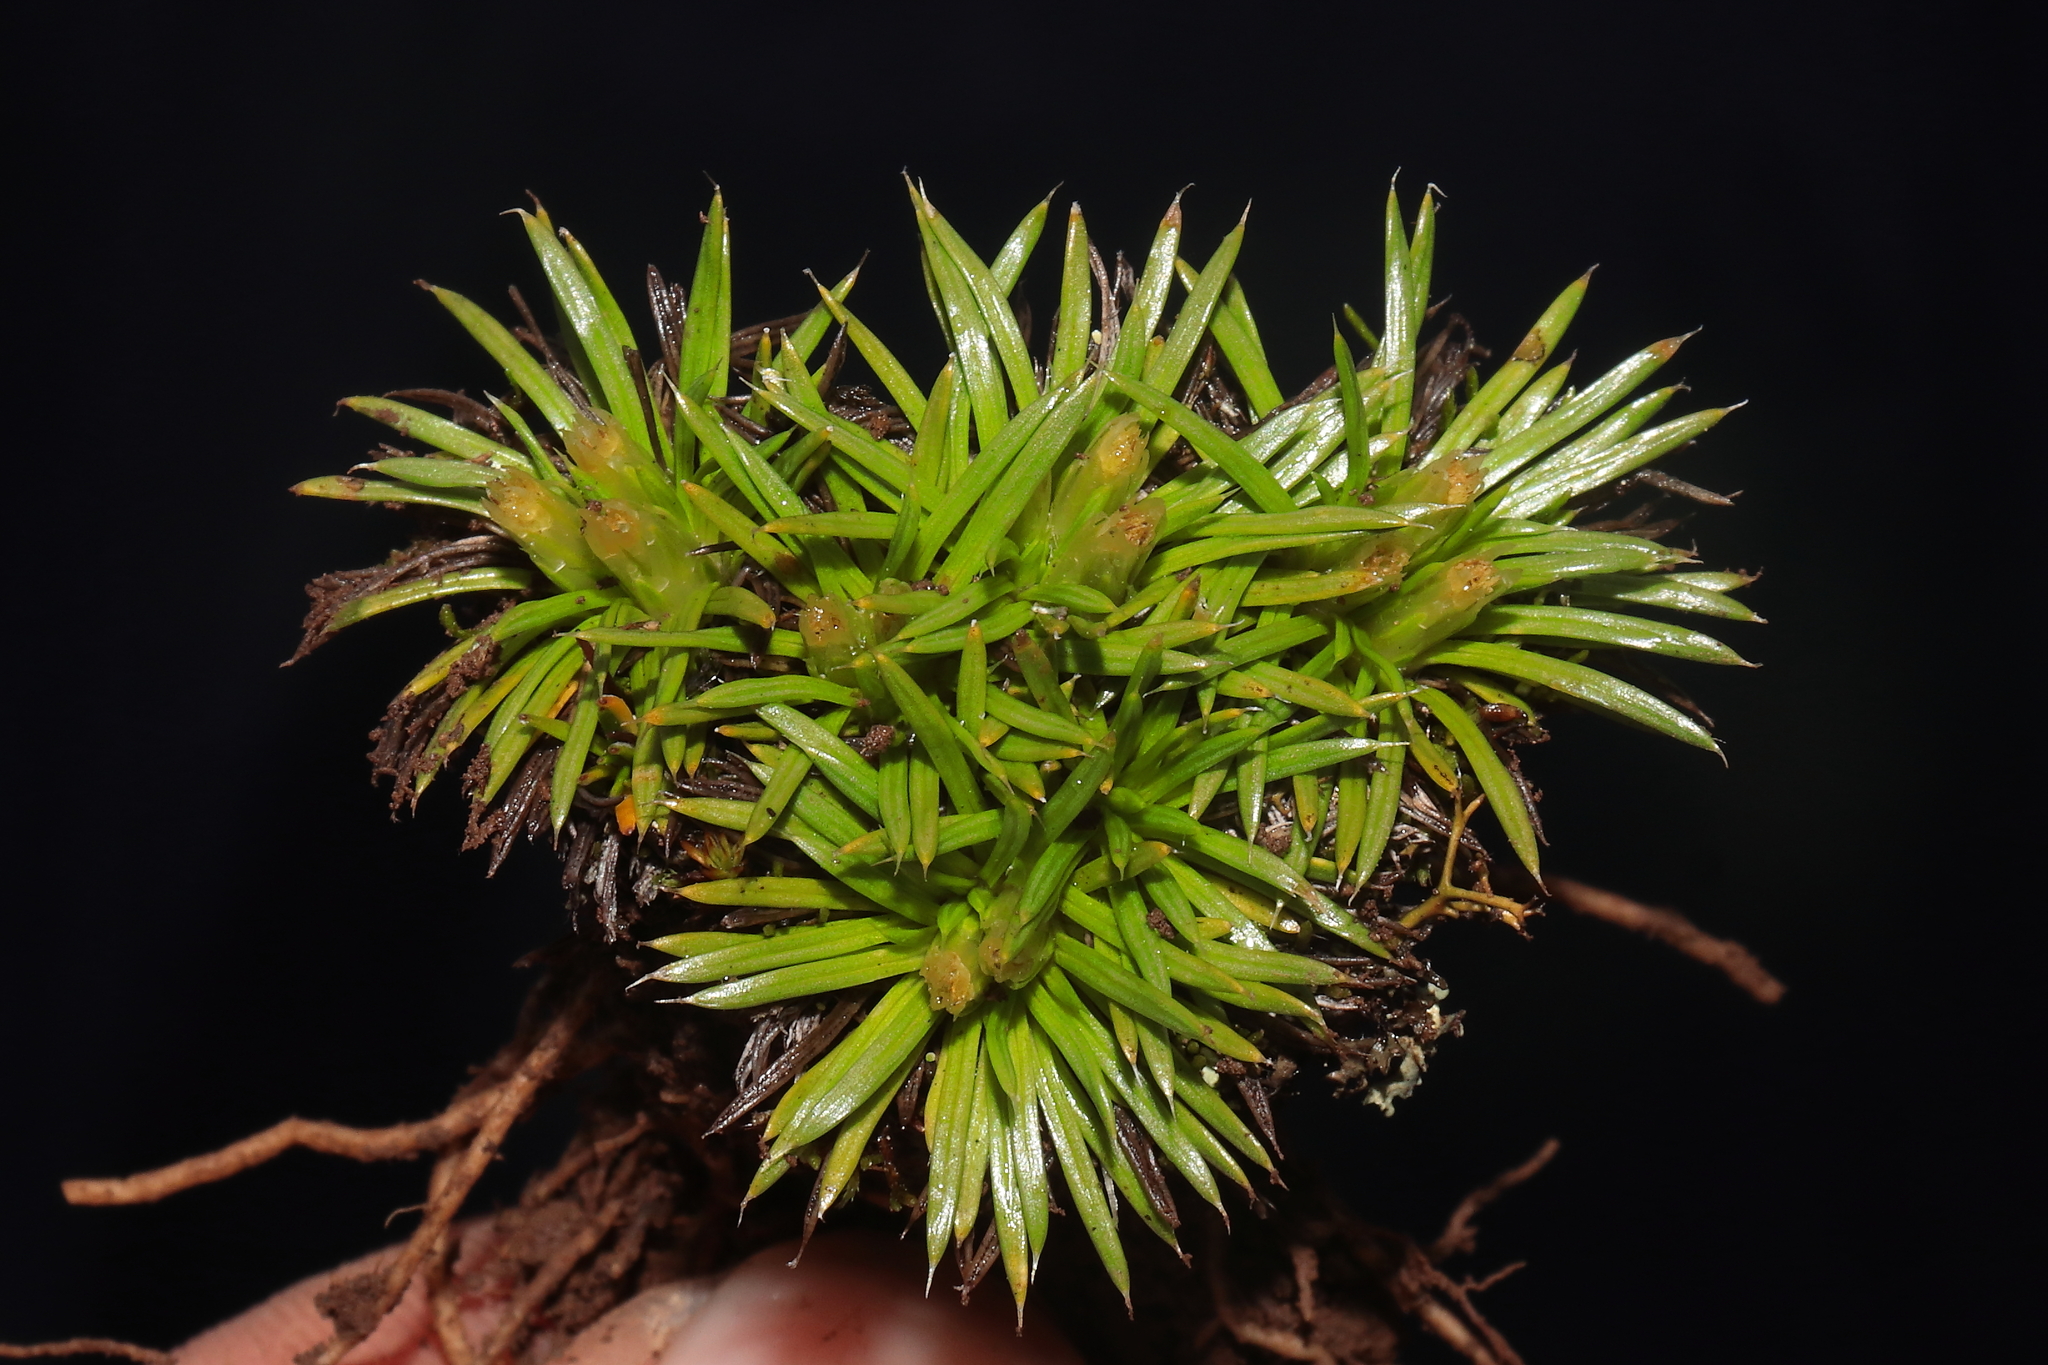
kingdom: Plantae
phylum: Tracheophyta
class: Magnoliopsida
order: Asterales
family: Asteraceae
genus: Novenia
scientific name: Novenia tunariensis
